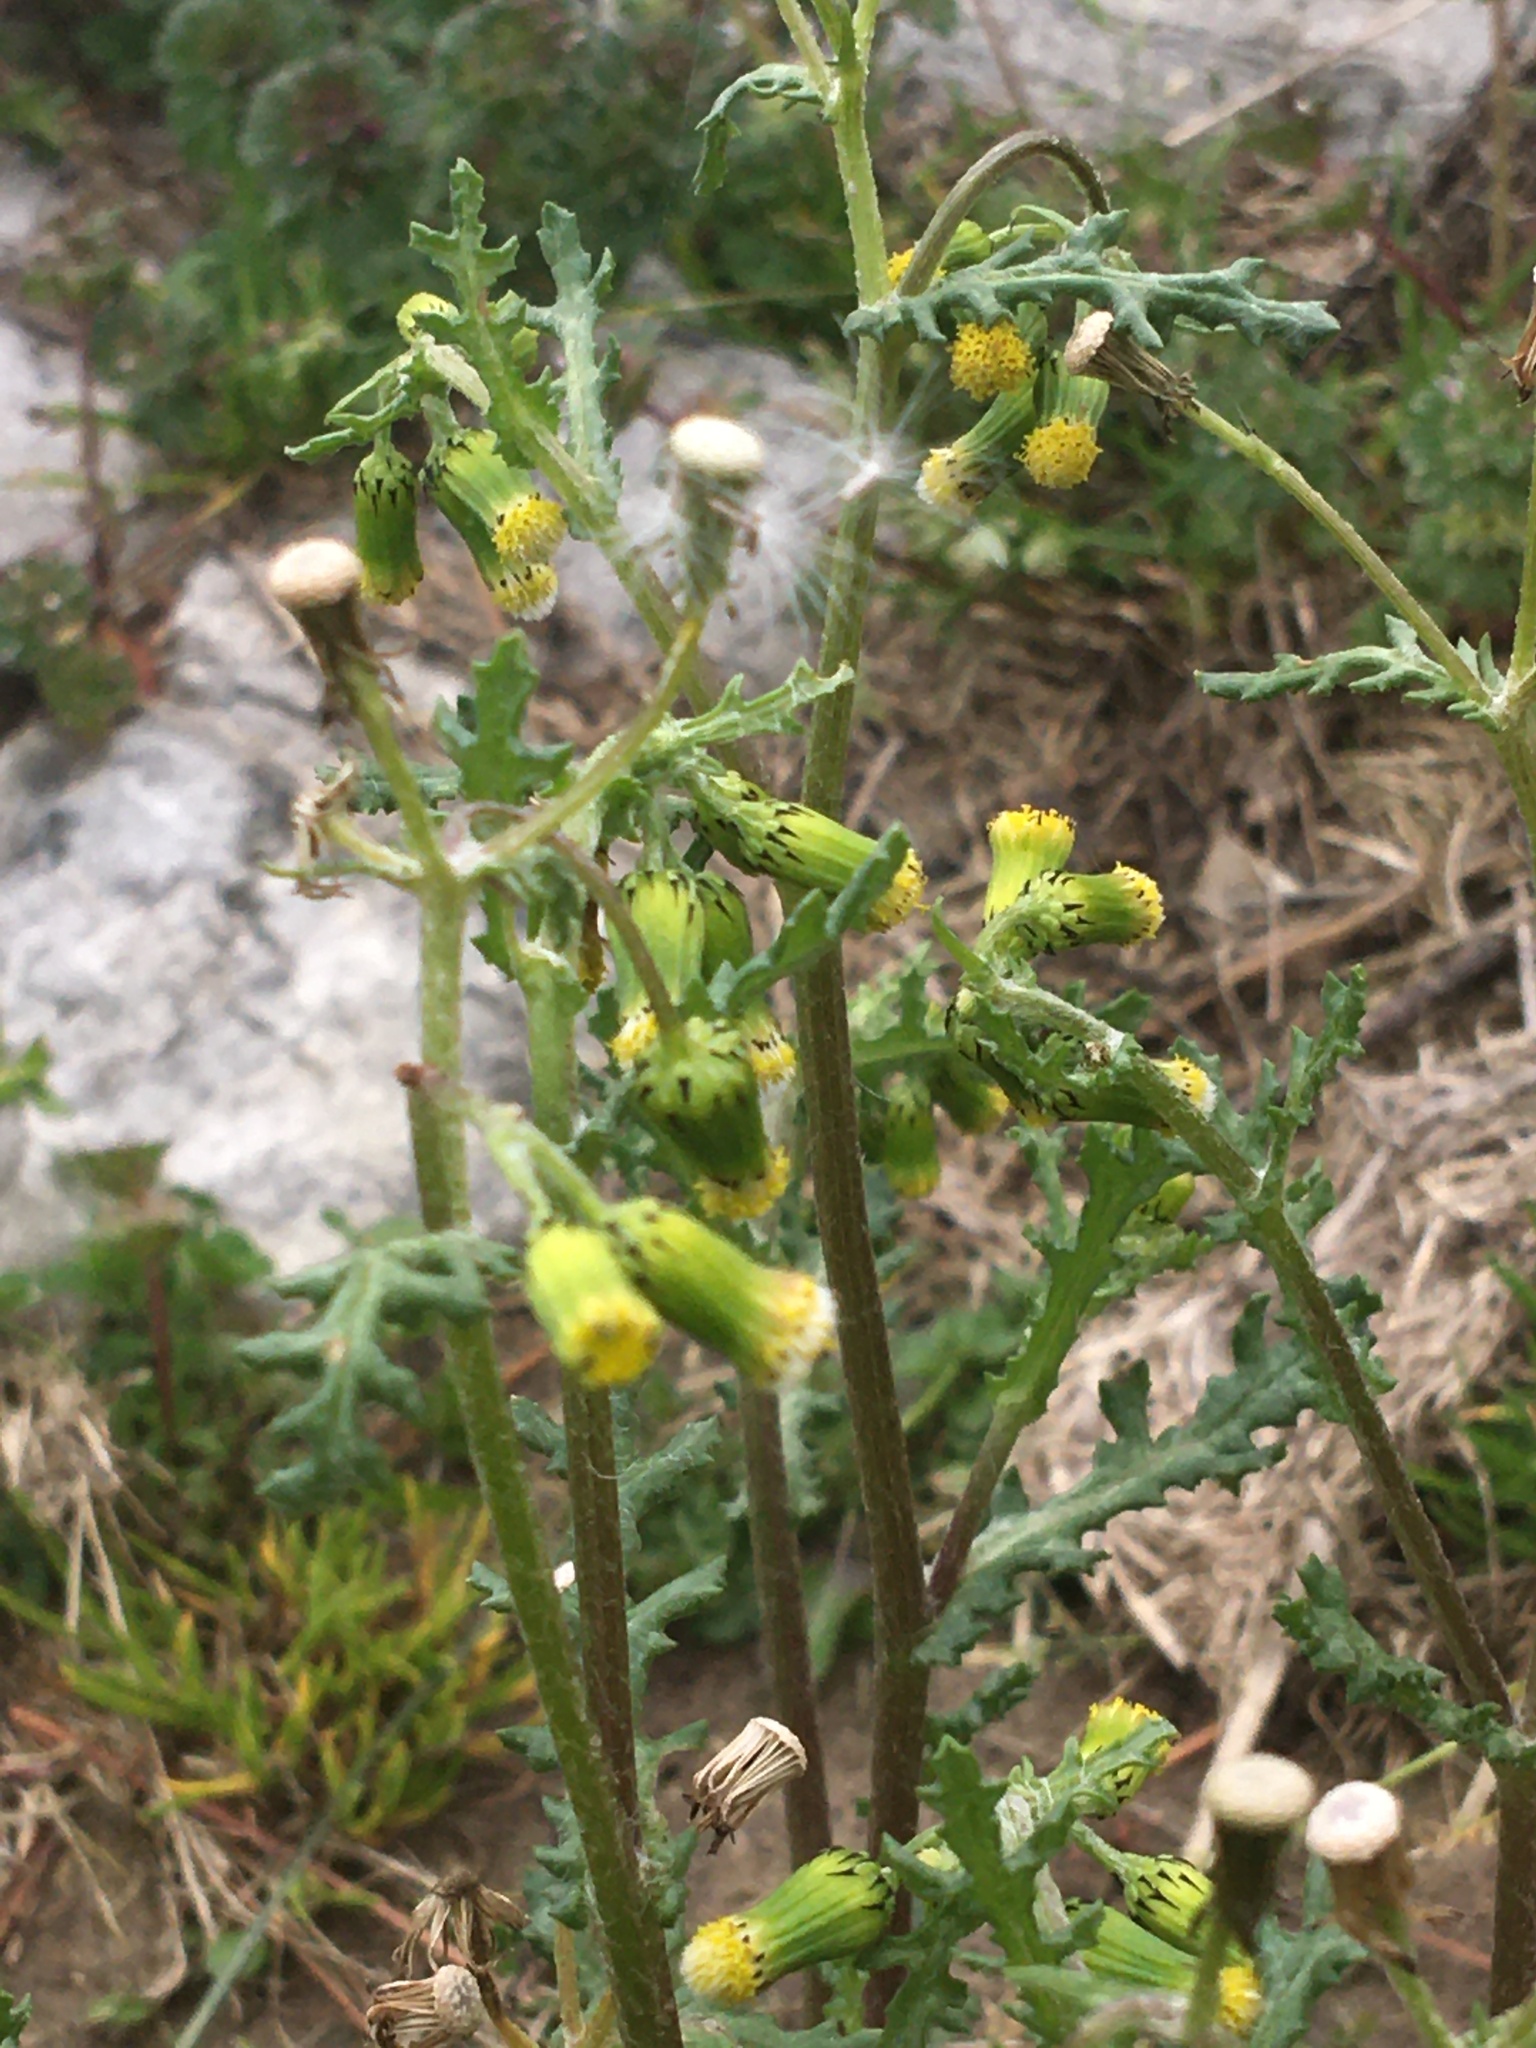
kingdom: Plantae
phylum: Tracheophyta
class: Magnoliopsida
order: Asterales
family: Asteraceae
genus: Senecio
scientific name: Senecio vulgaris
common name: Old-man-in-the-spring
